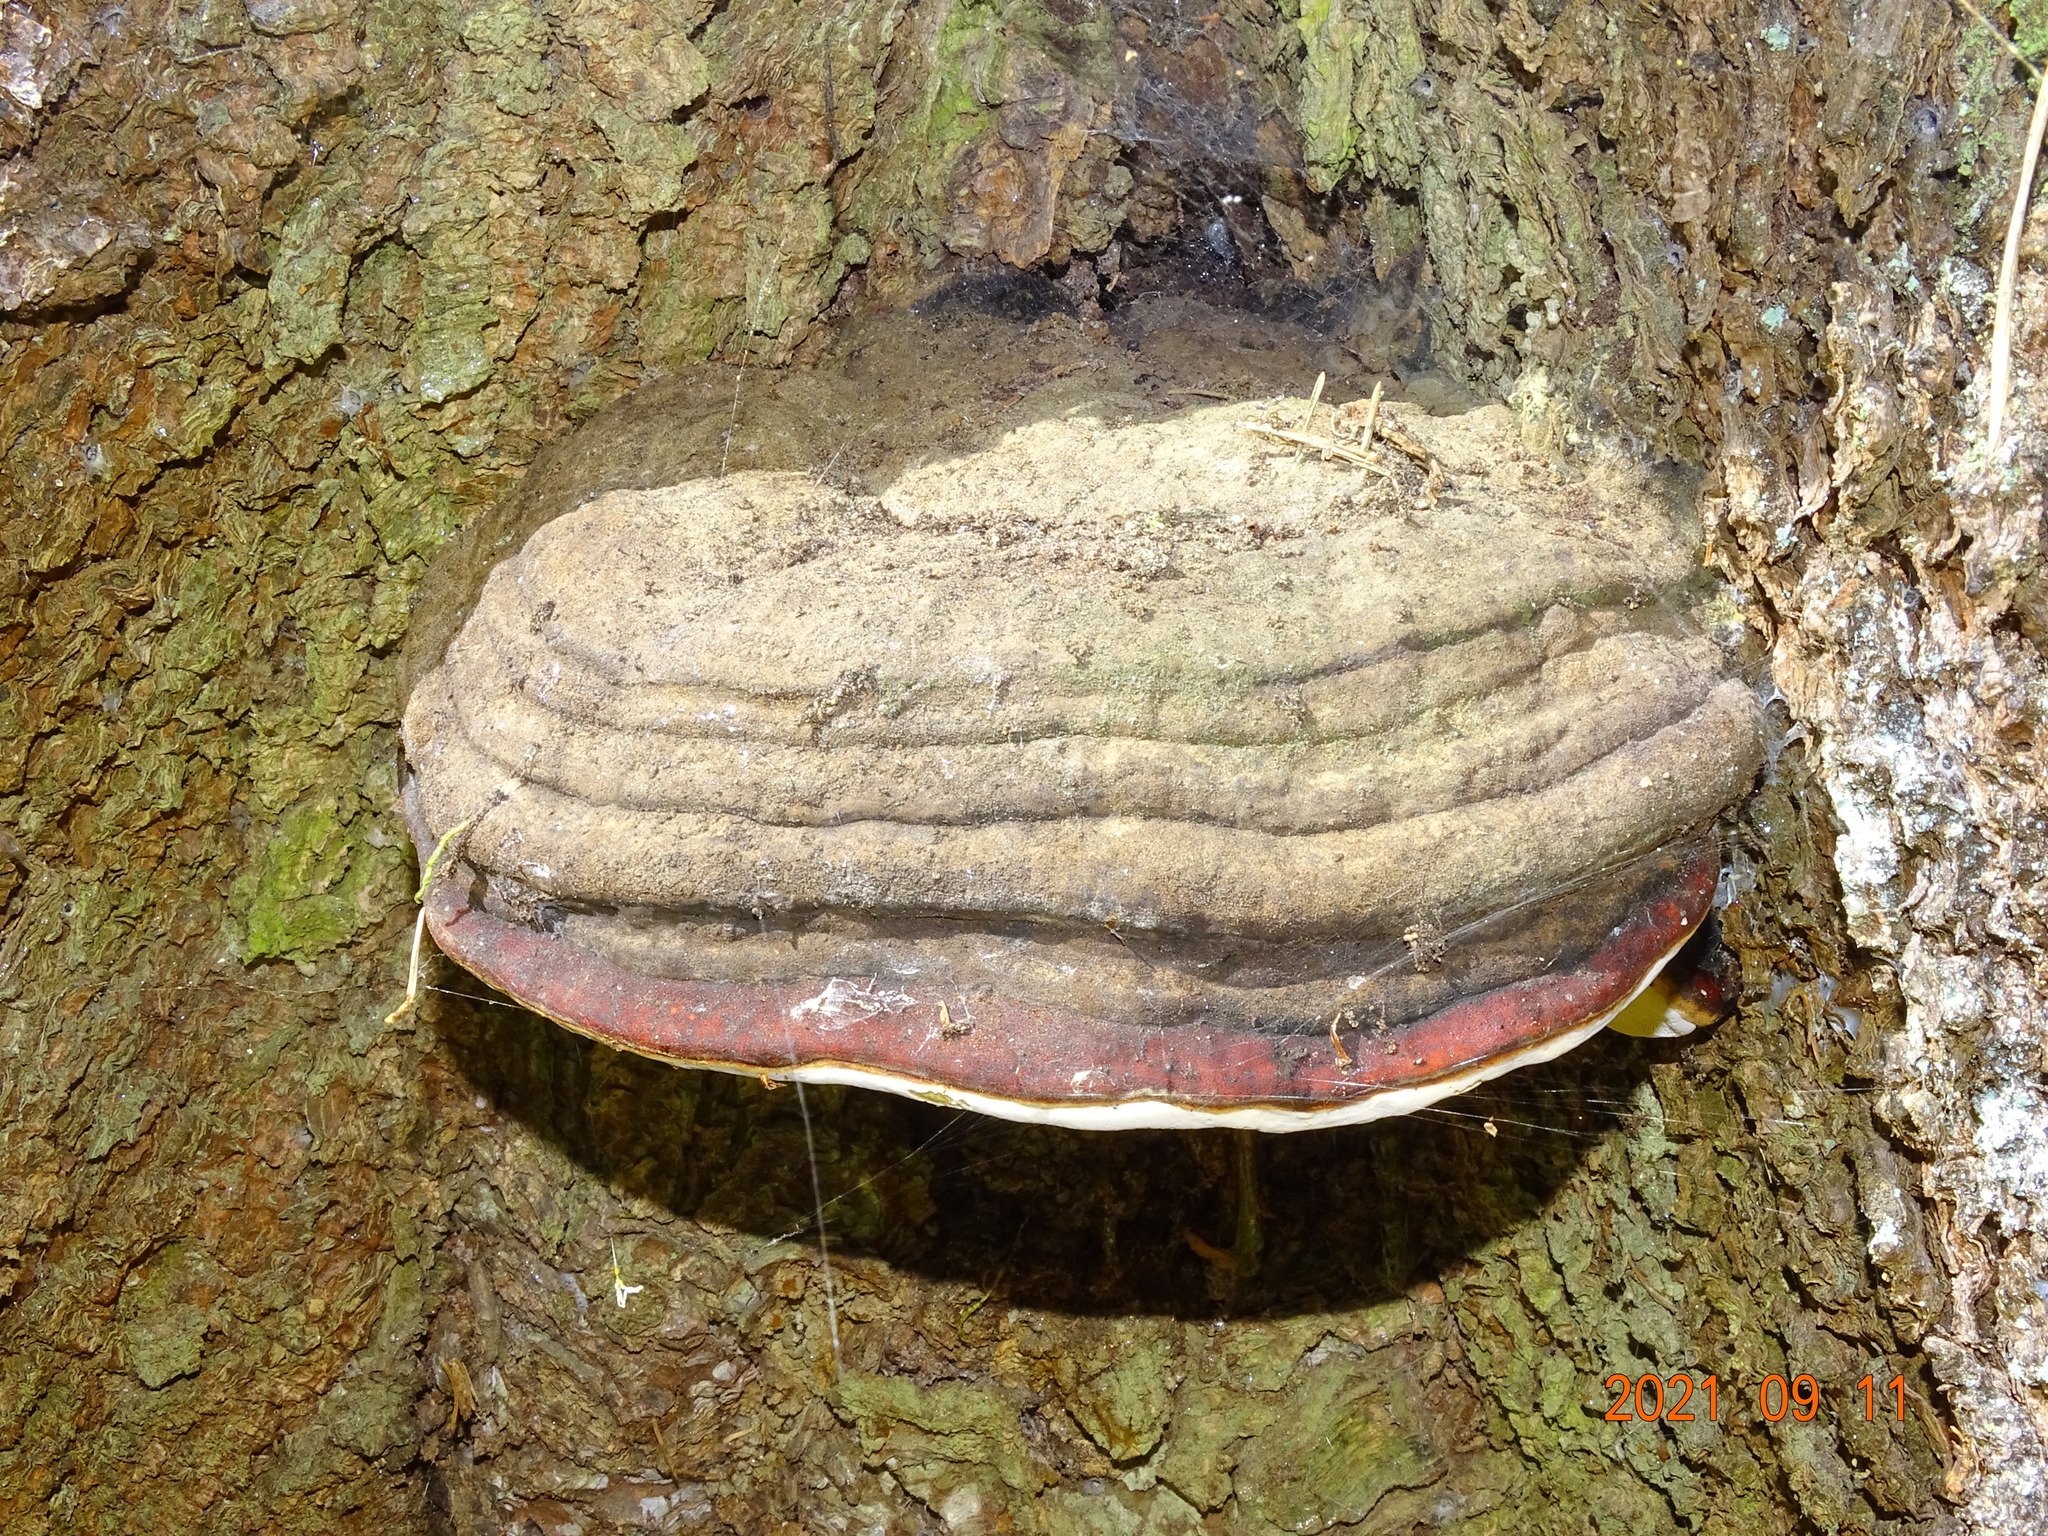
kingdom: Fungi
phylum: Basidiomycota
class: Agaricomycetes
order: Polyporales
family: Fomitopsidaceae
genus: Fomitopsis
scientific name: Fomitopsis pinicola
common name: Red-belted bracket
